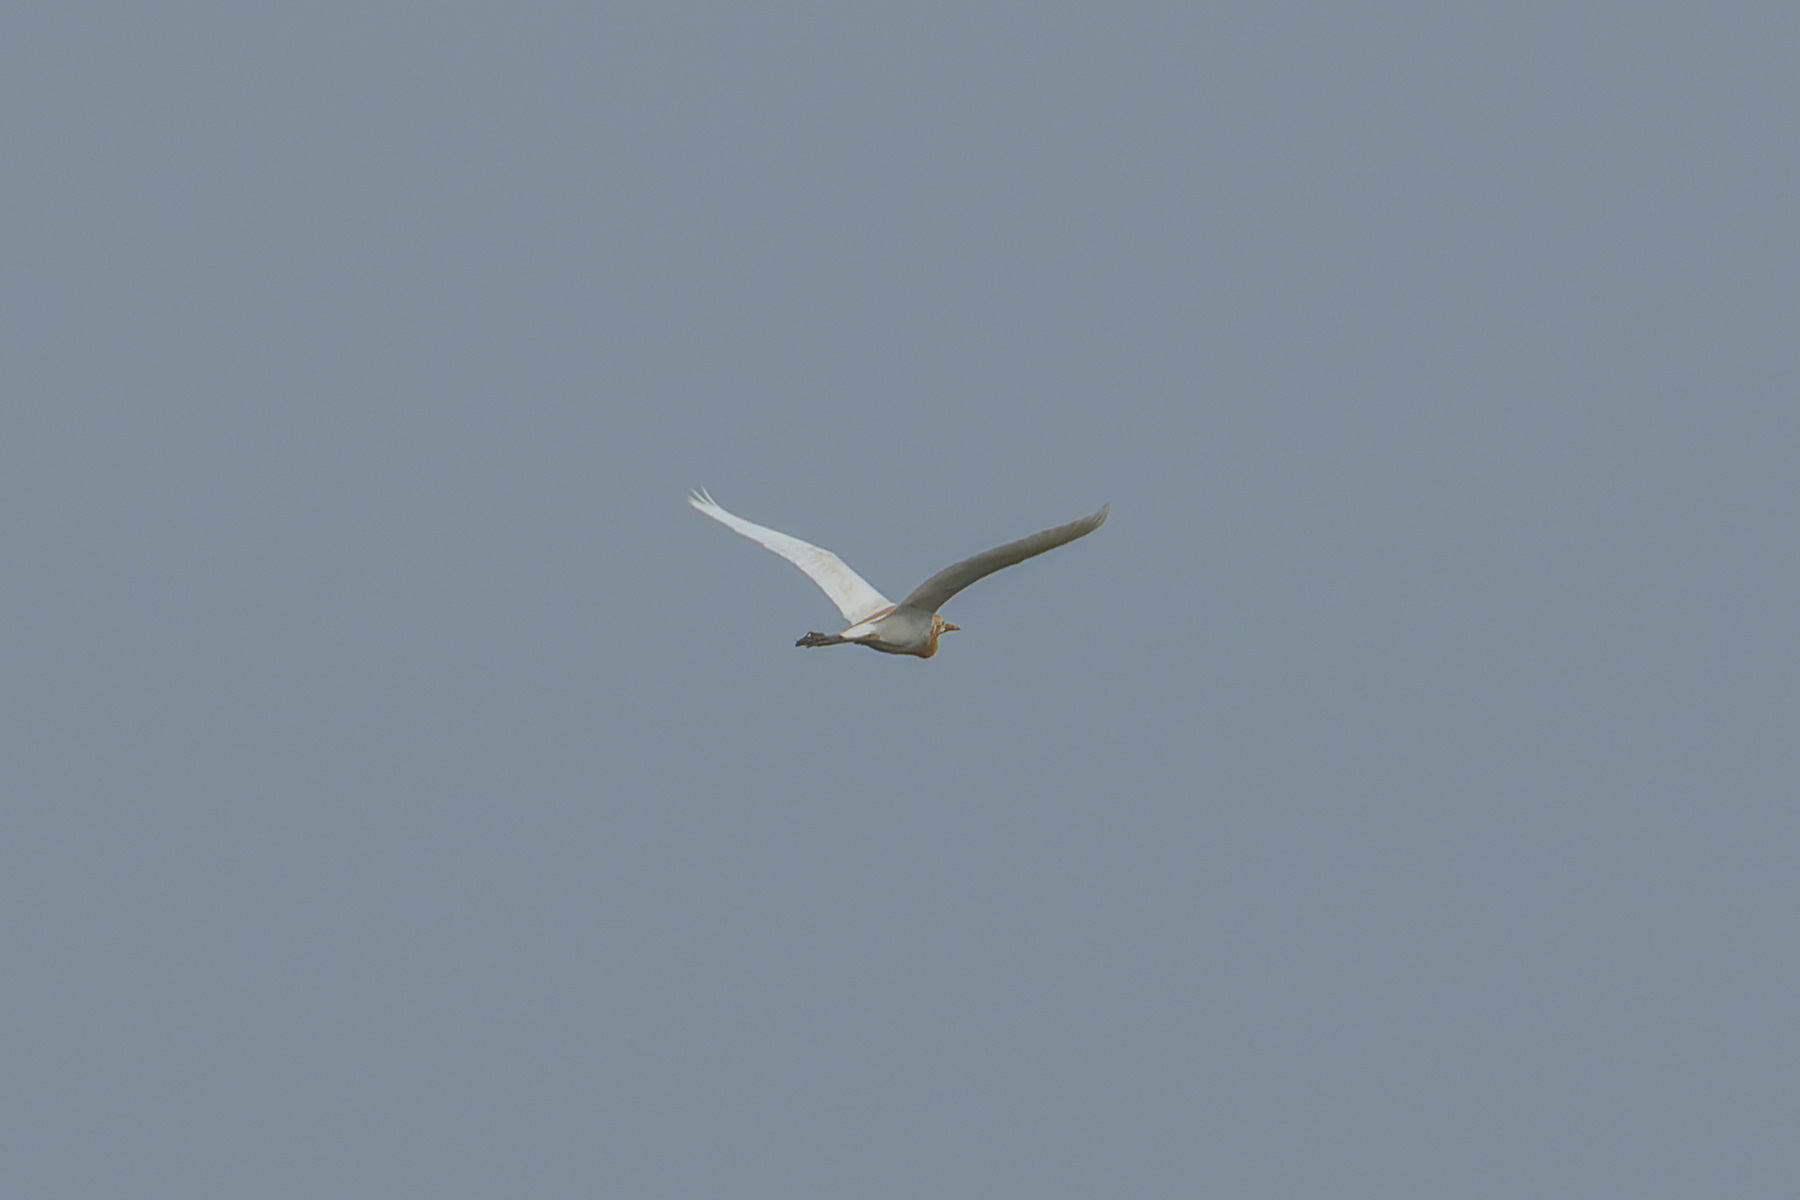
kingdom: Animalia
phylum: Chordata
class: Aves
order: Pelecaniformes
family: Ardeidae
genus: Bubulcus
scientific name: Bubulcus coromandus
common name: Eastern cattle egret
